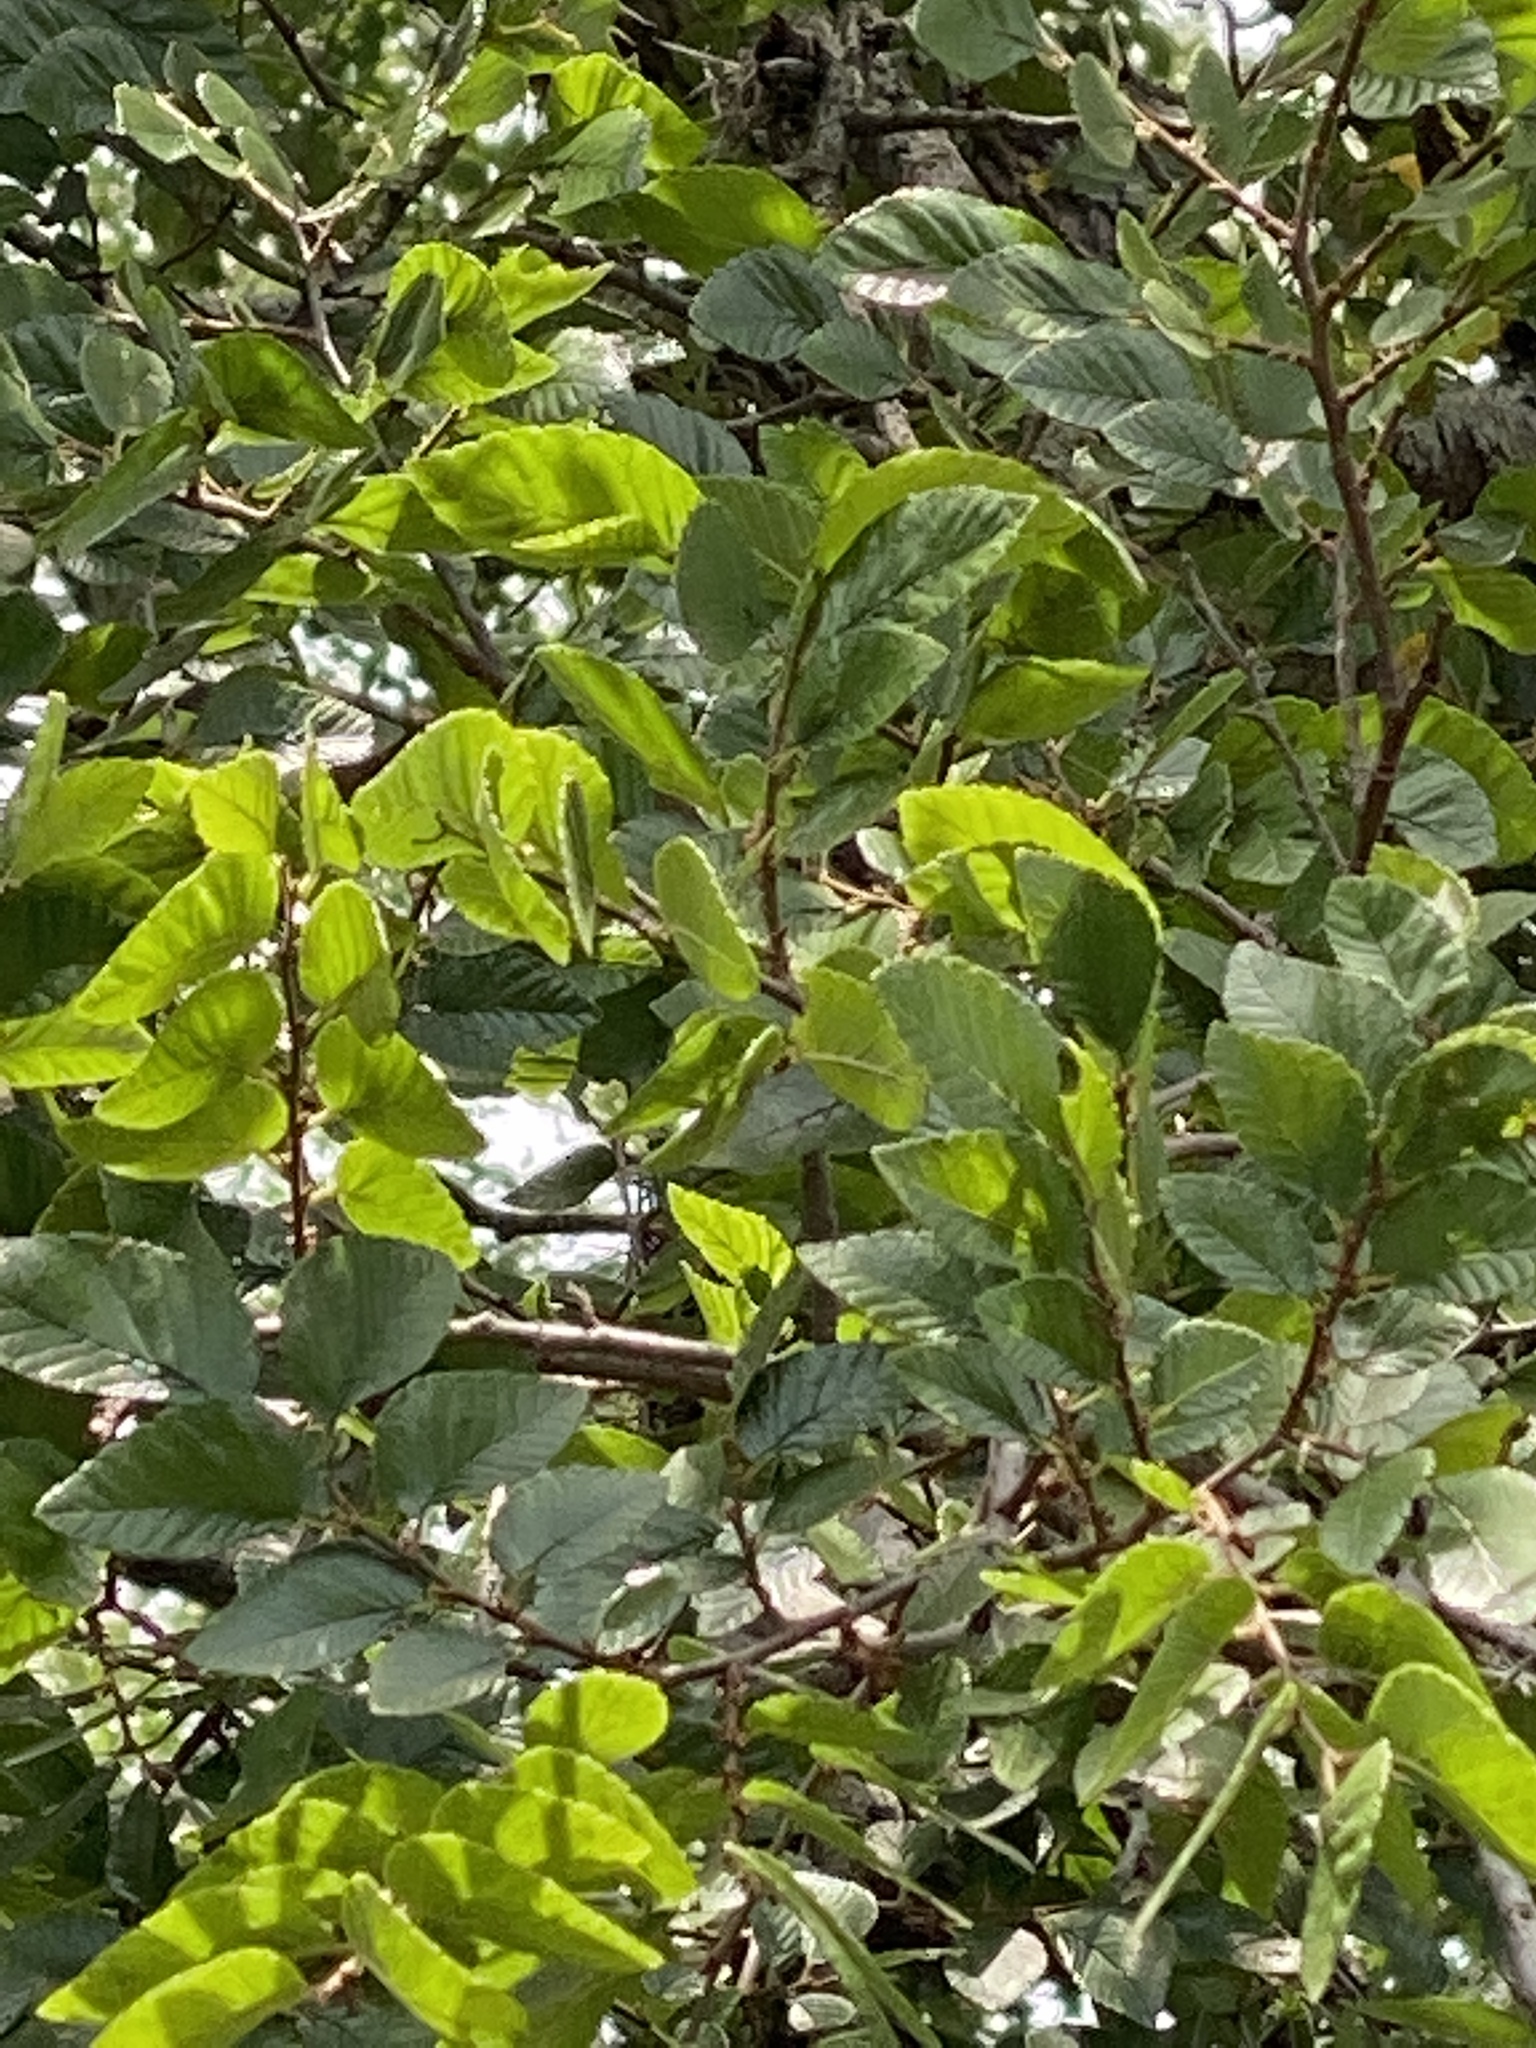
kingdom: Plantae
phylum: Tracheophyta
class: Magnoliopsida
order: Rosales
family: Ulmaceae
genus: Ulmus
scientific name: Ulmus crassifolia
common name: Basket elm
